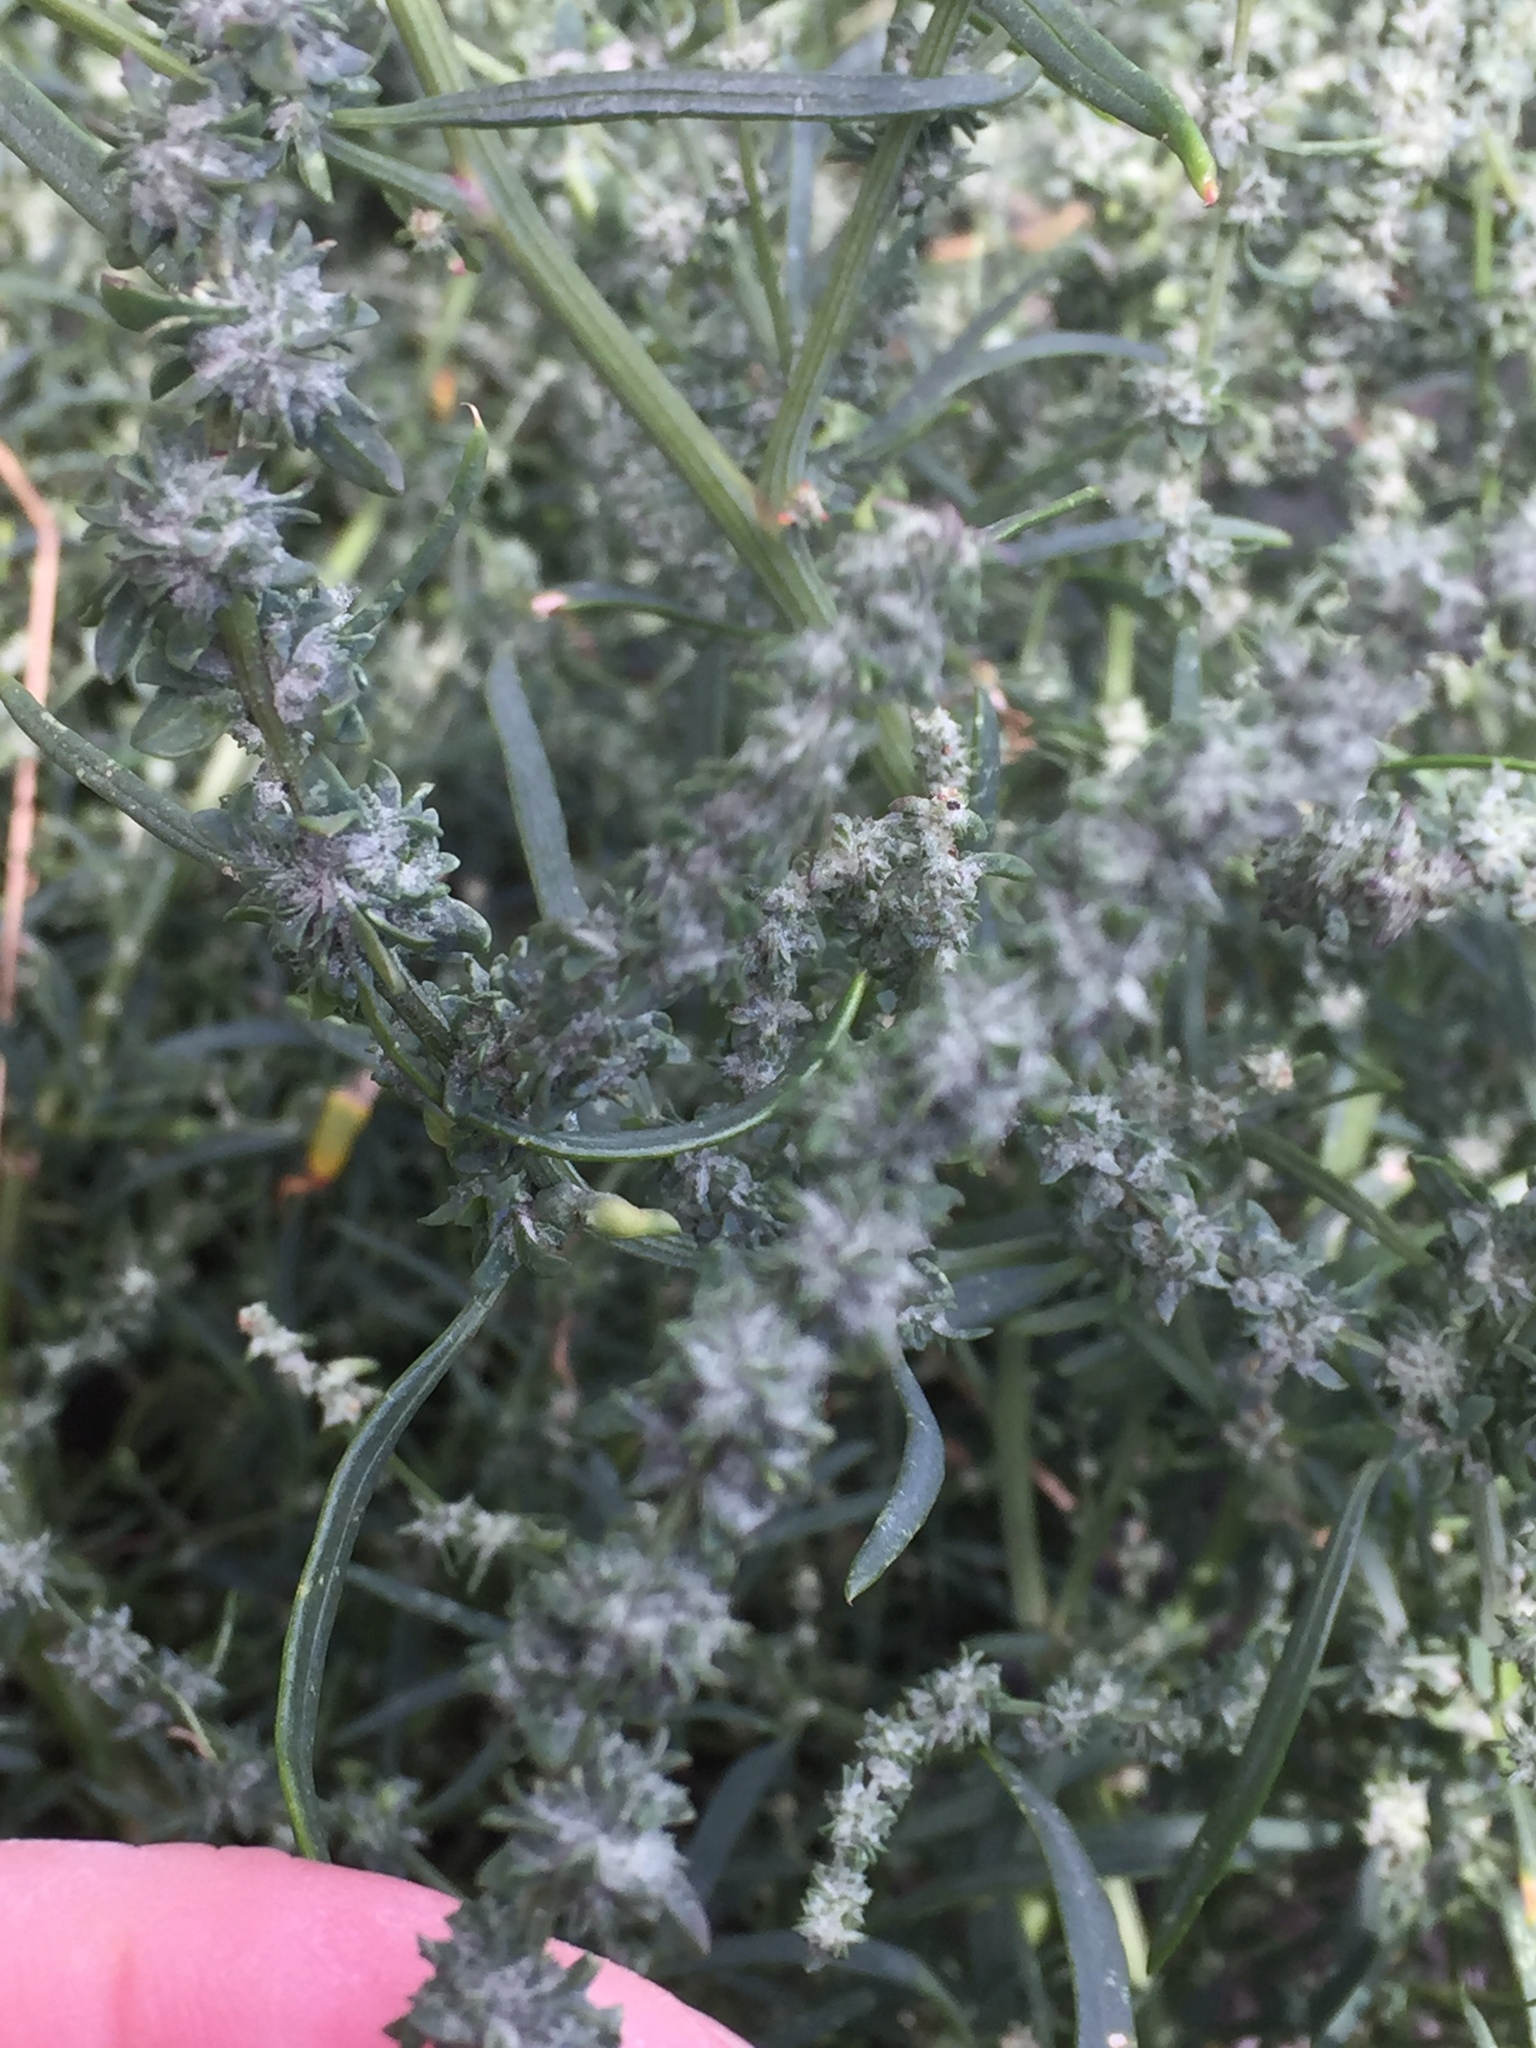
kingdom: Plantae
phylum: Tracheophyta
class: Magnoliopsida
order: Caryophyllales
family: Amaranthaceae
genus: Atriplex
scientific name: Atriplex littoralis
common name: Grass-leaved orache
